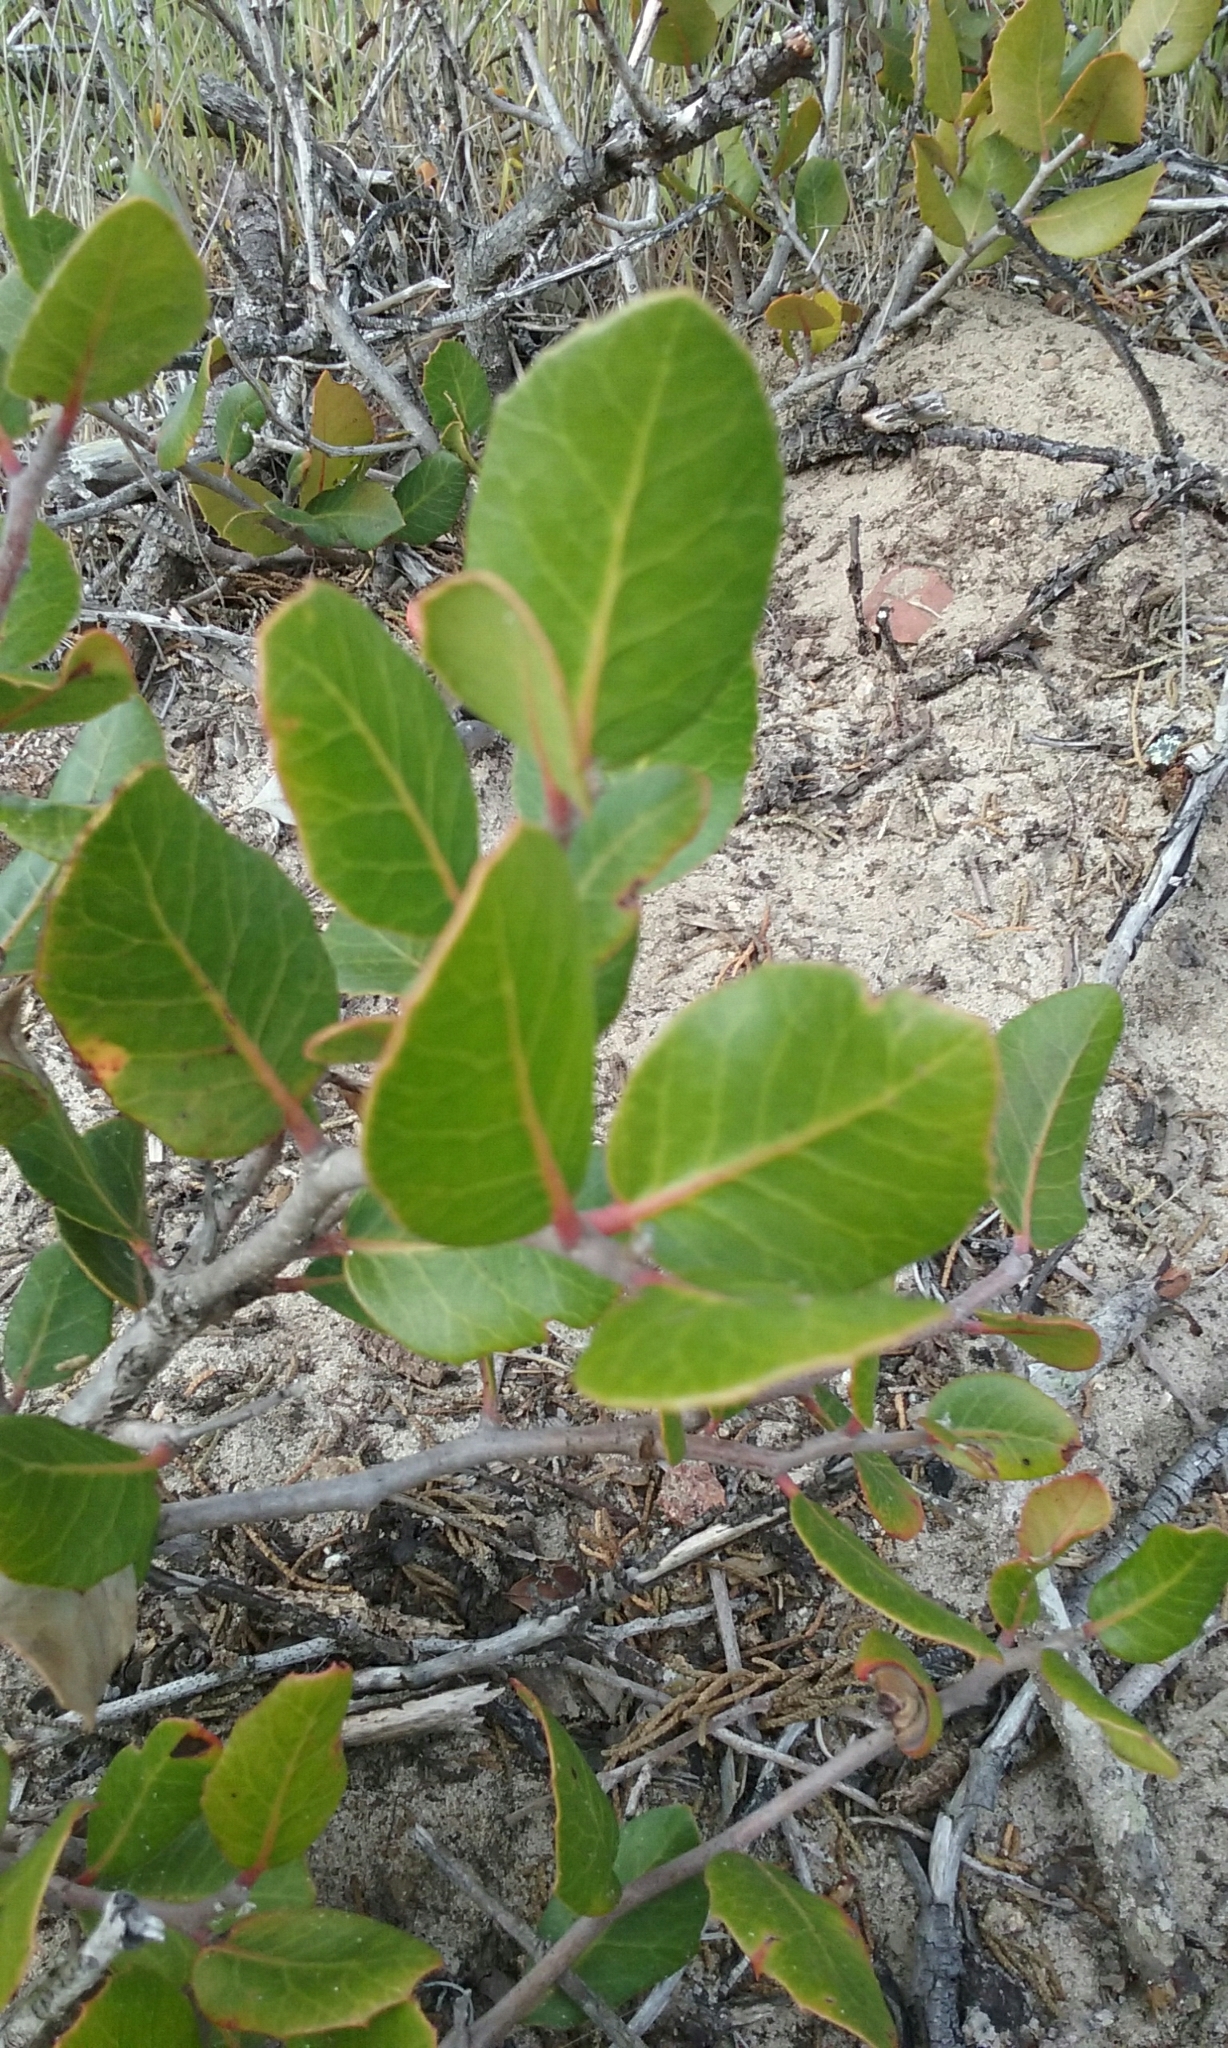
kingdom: Plantae
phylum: Tracheophyta
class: Magnoliopsida
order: Sapindales
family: Anacardiaceae
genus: Rhus
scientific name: Rhus integrifolia
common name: Lemonade sumac
